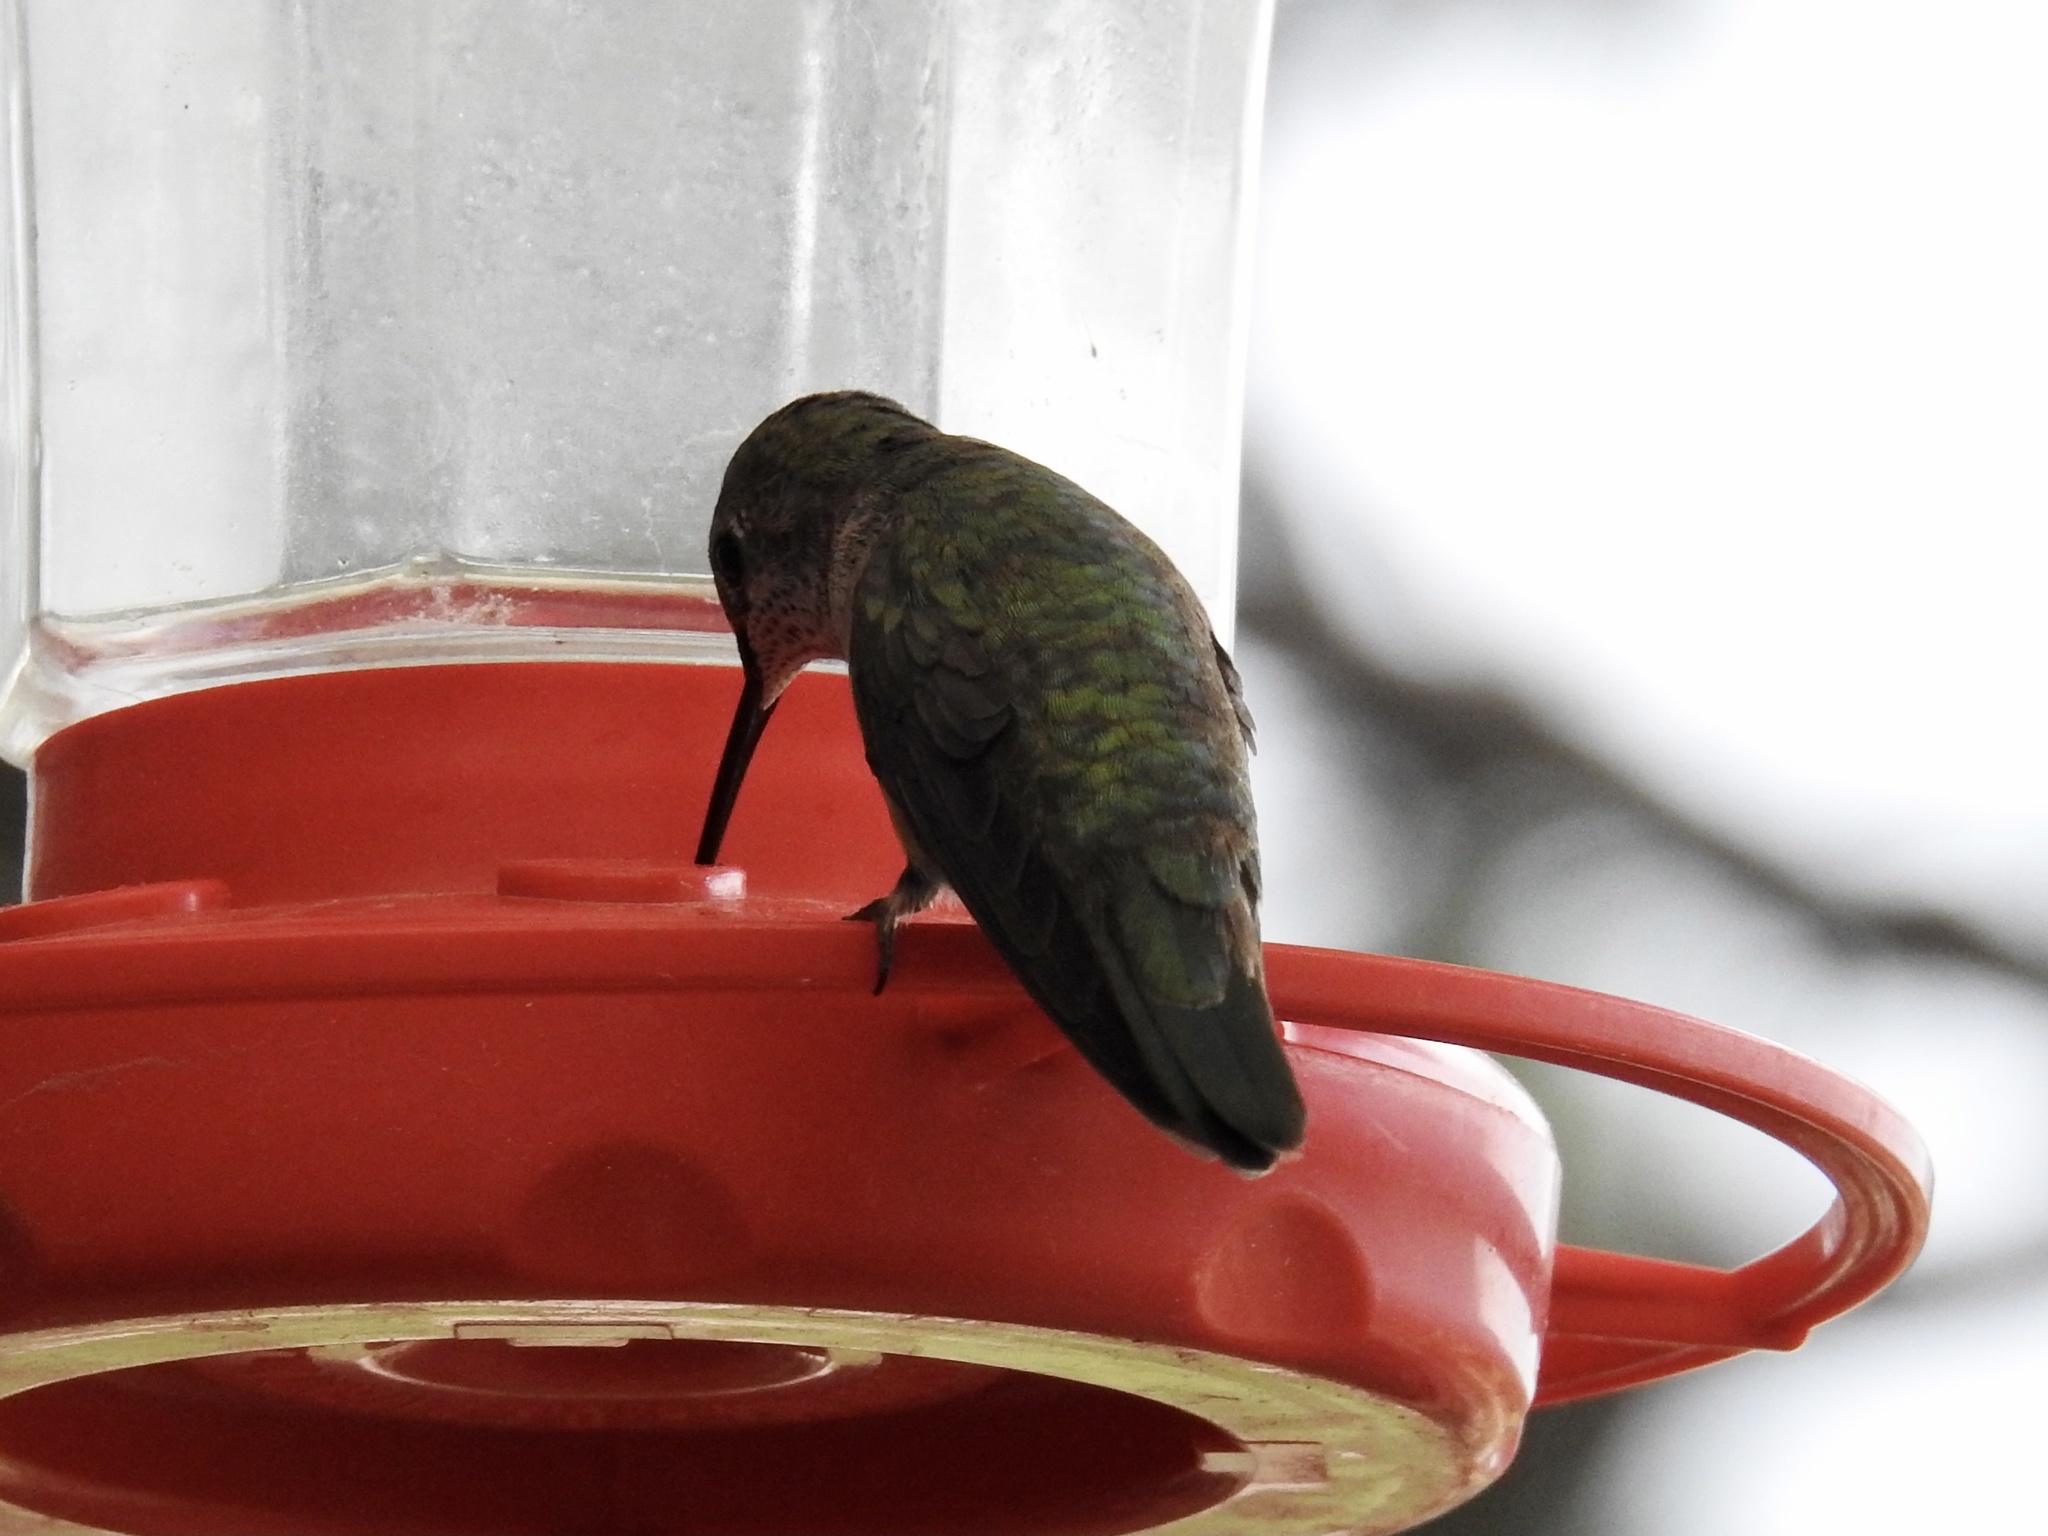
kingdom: Animalia
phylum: Chordata
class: Aves
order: Apodiformes
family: Trochilidae
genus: Selasphorus
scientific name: Selasphorus platycercus
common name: Broad-tailed hummingbird
